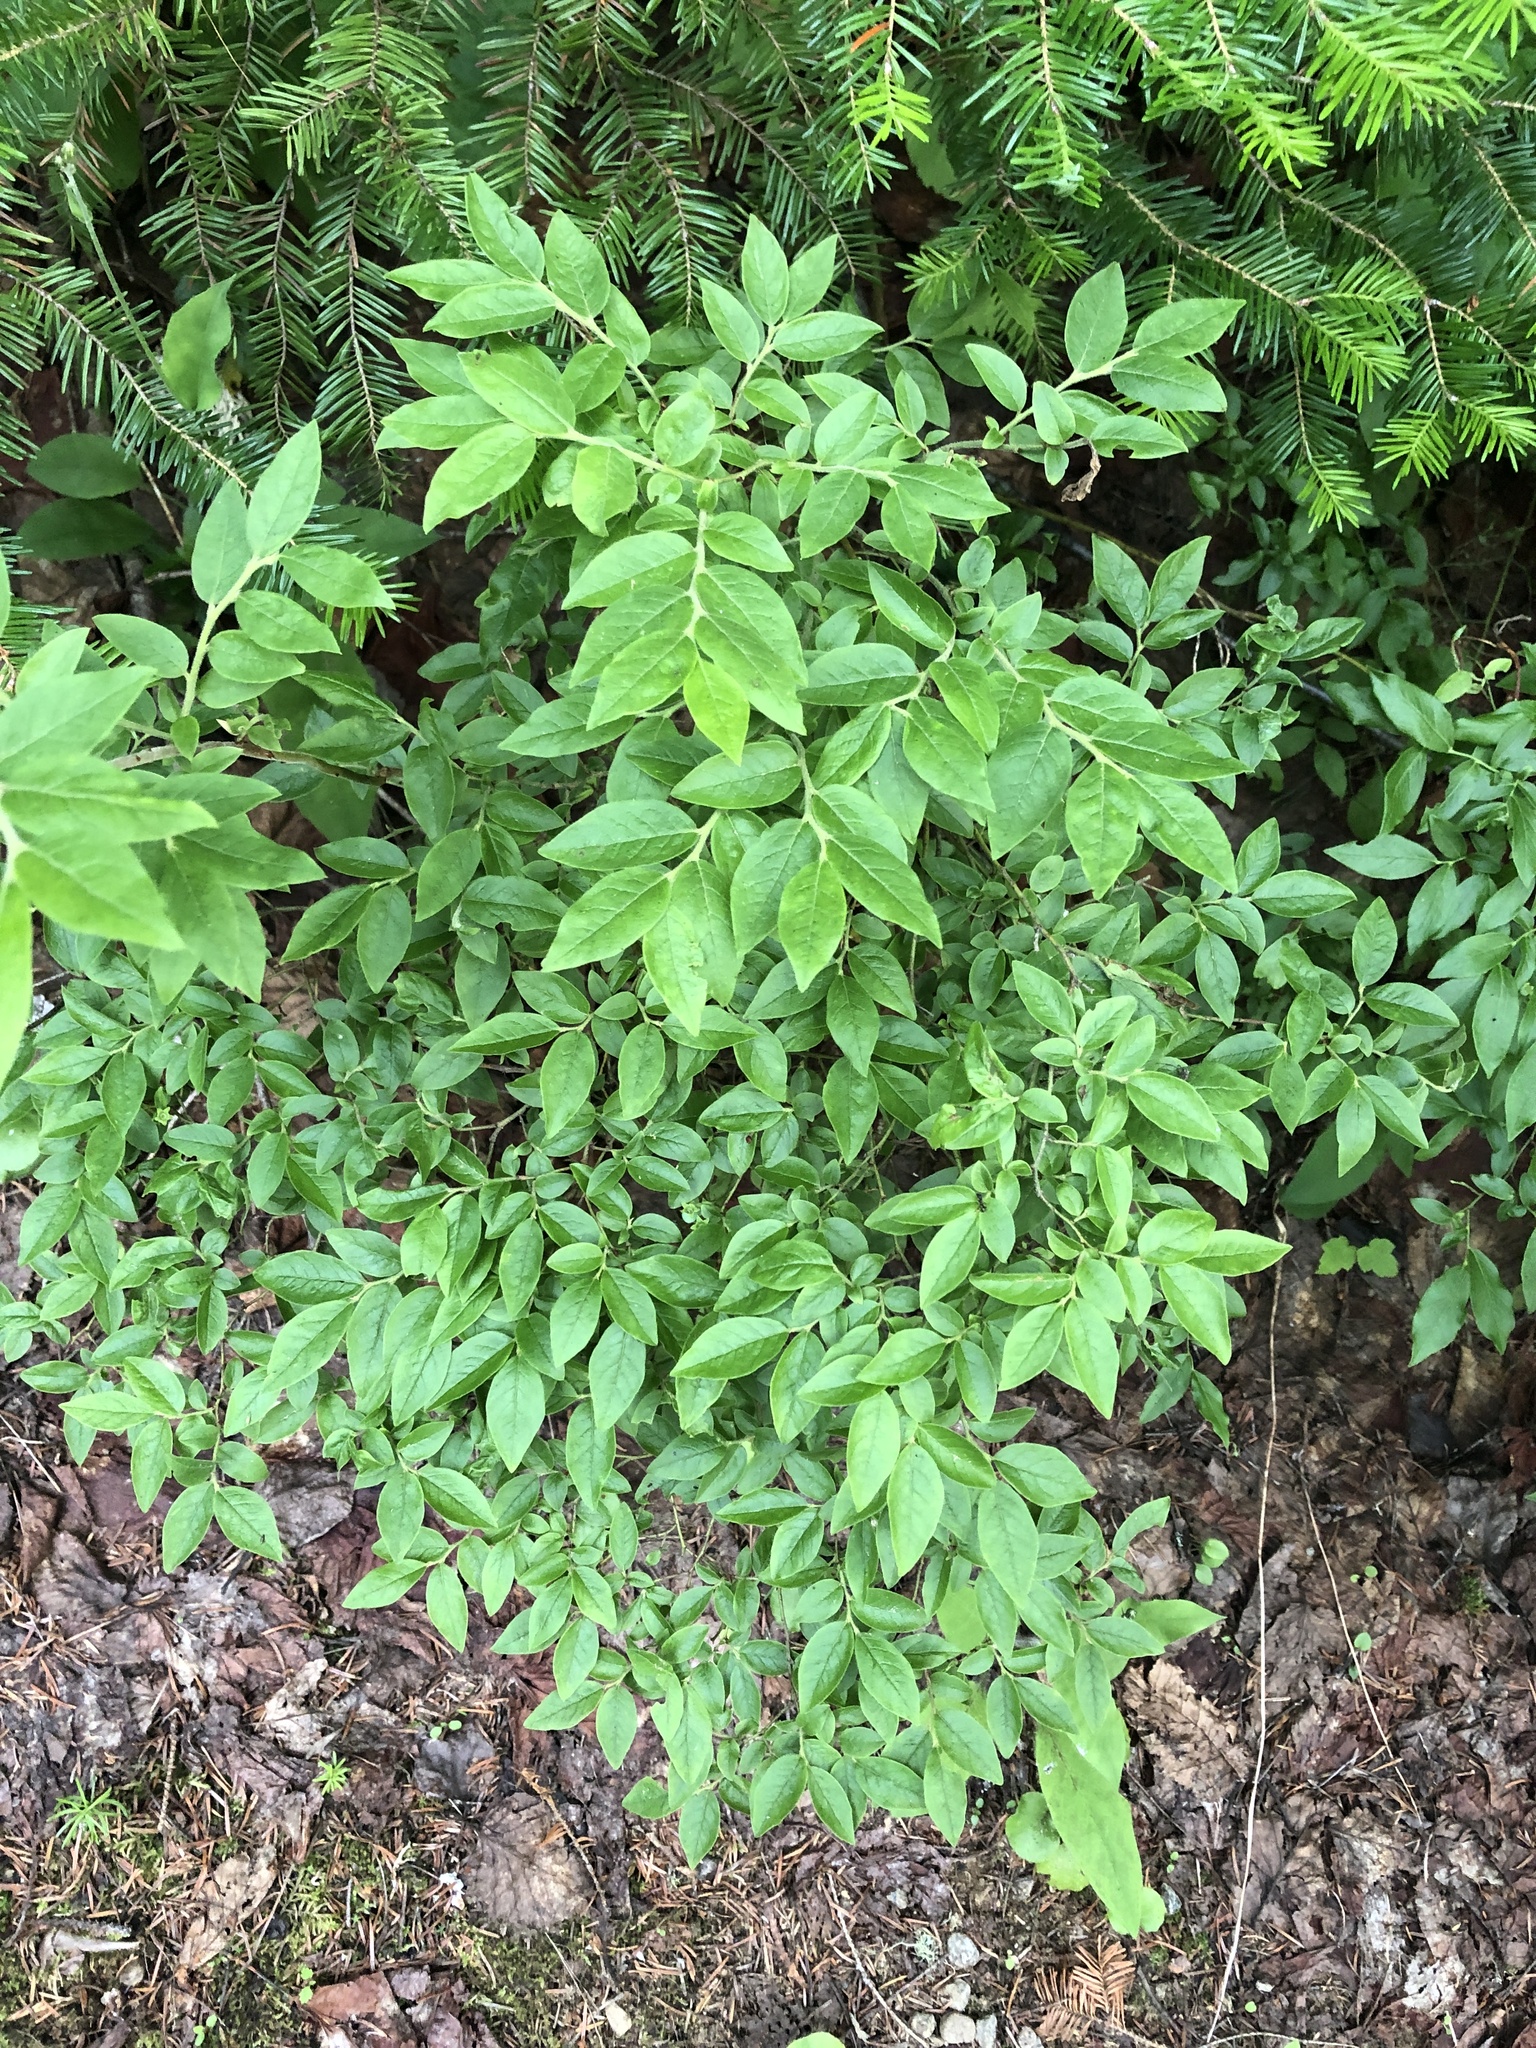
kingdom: Plantae
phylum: Tracheophyta
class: Magnoliopsida
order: Ericales
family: Ericaceae
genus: Vaccinium
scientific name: Vaccinium myrtilloides
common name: Canada blueberry
